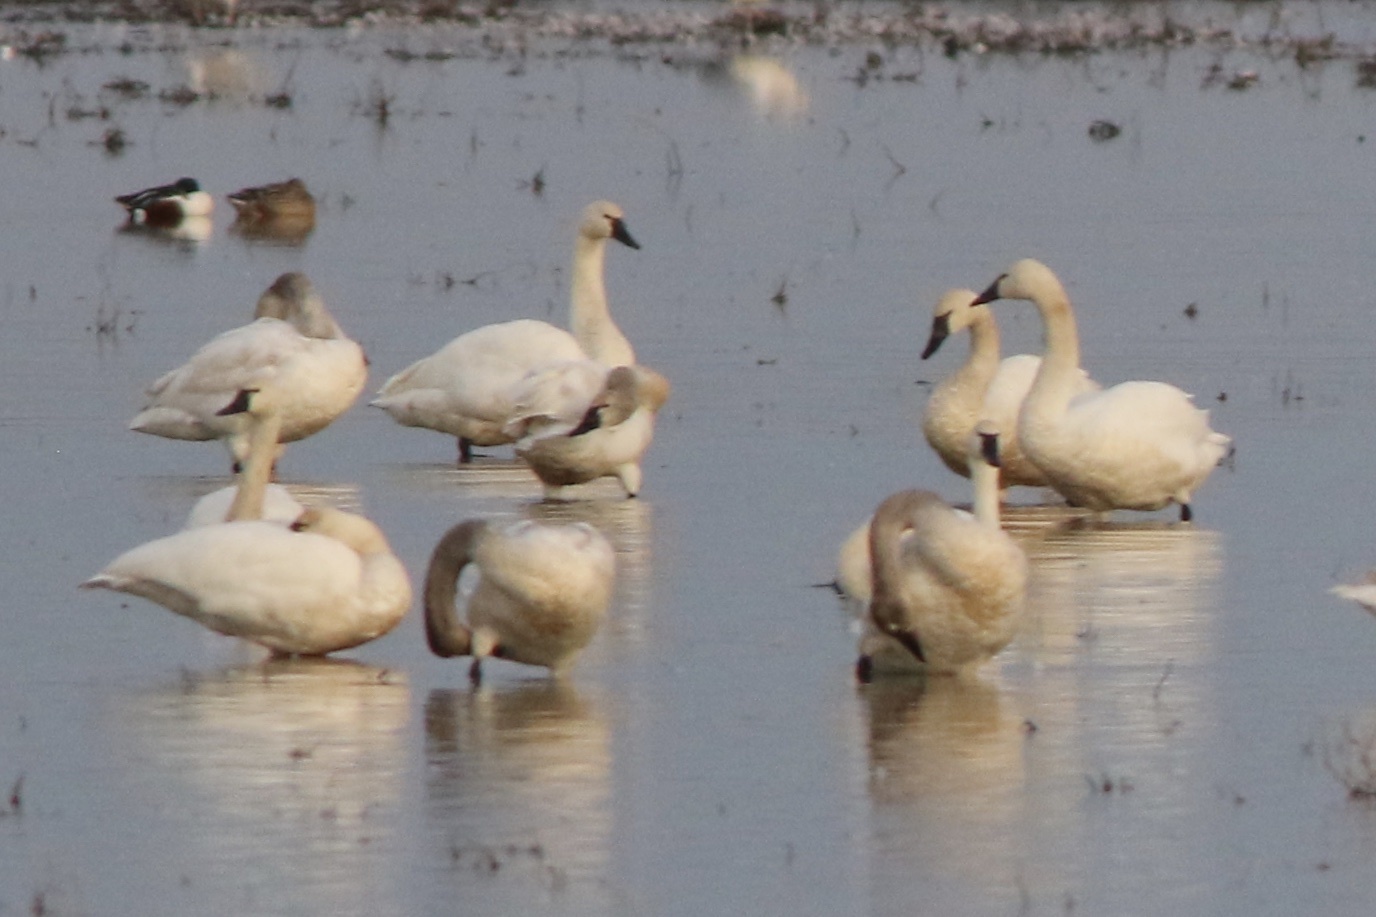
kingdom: Animalia
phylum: Chordata
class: Aves
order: Anseriformes
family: Anatidae
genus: Cygnus
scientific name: Cygnus columbianus
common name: Tundra swan
